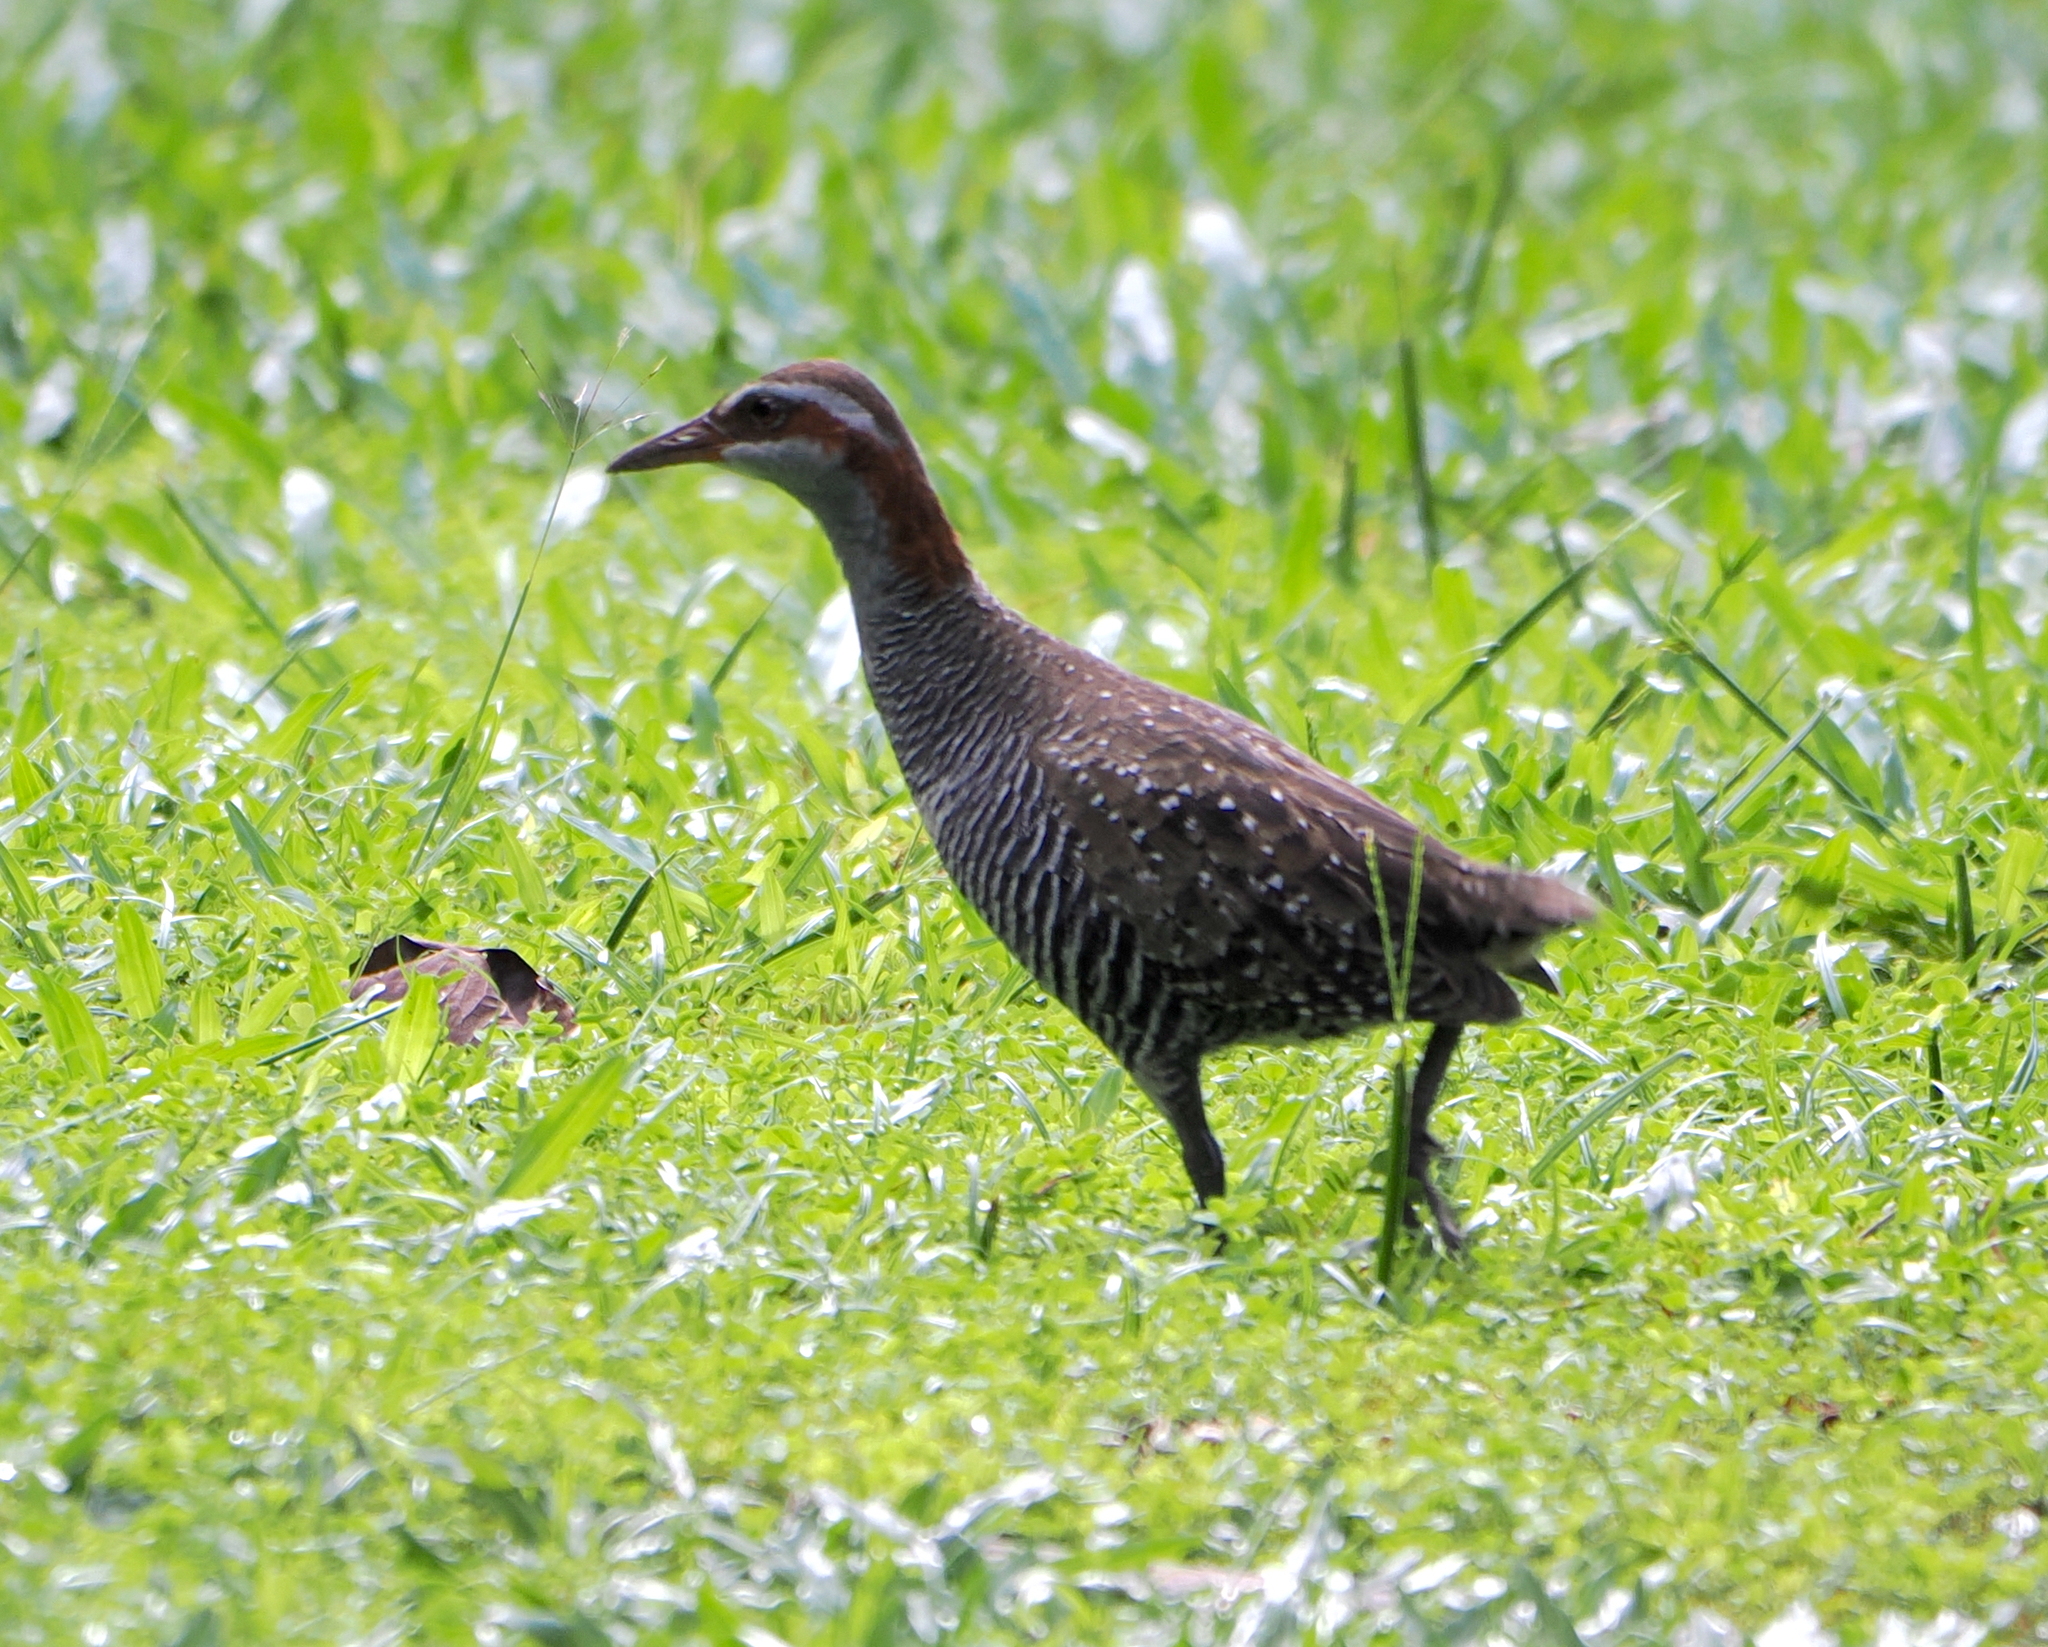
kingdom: Animalia
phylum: Chordata
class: Aves
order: Gruiformes
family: Rallidae
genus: Gallirallus
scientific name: Gallirallus philippensis
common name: Buff-banded rail
